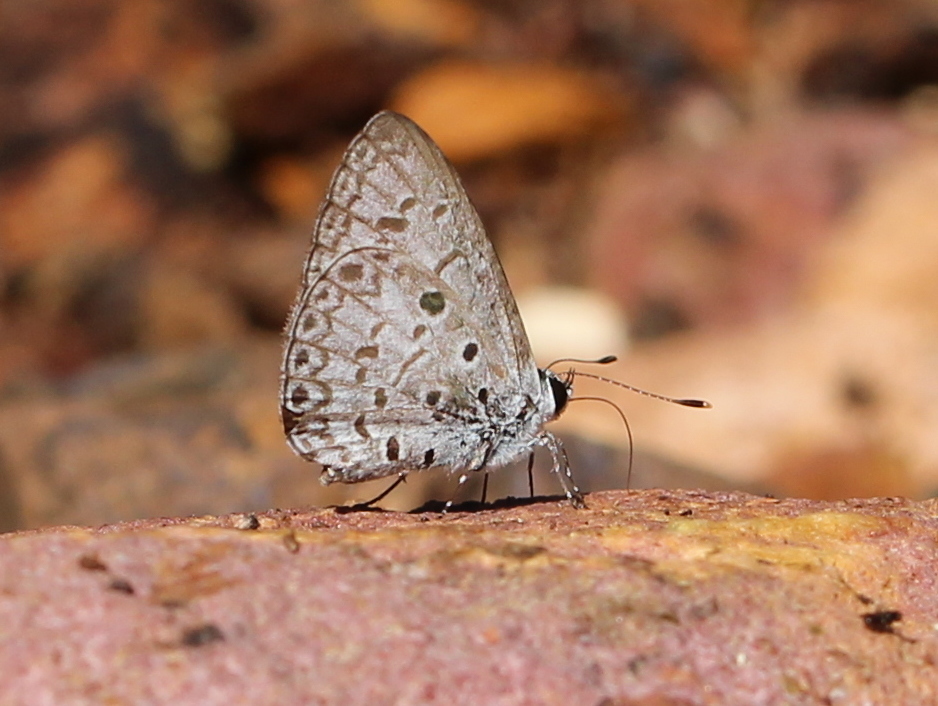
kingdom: Animalia
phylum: Arthropoda
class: Insecta
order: Lepidoptera
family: Lycaenidae
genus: Acytolepis
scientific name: Acytolepis puspa
